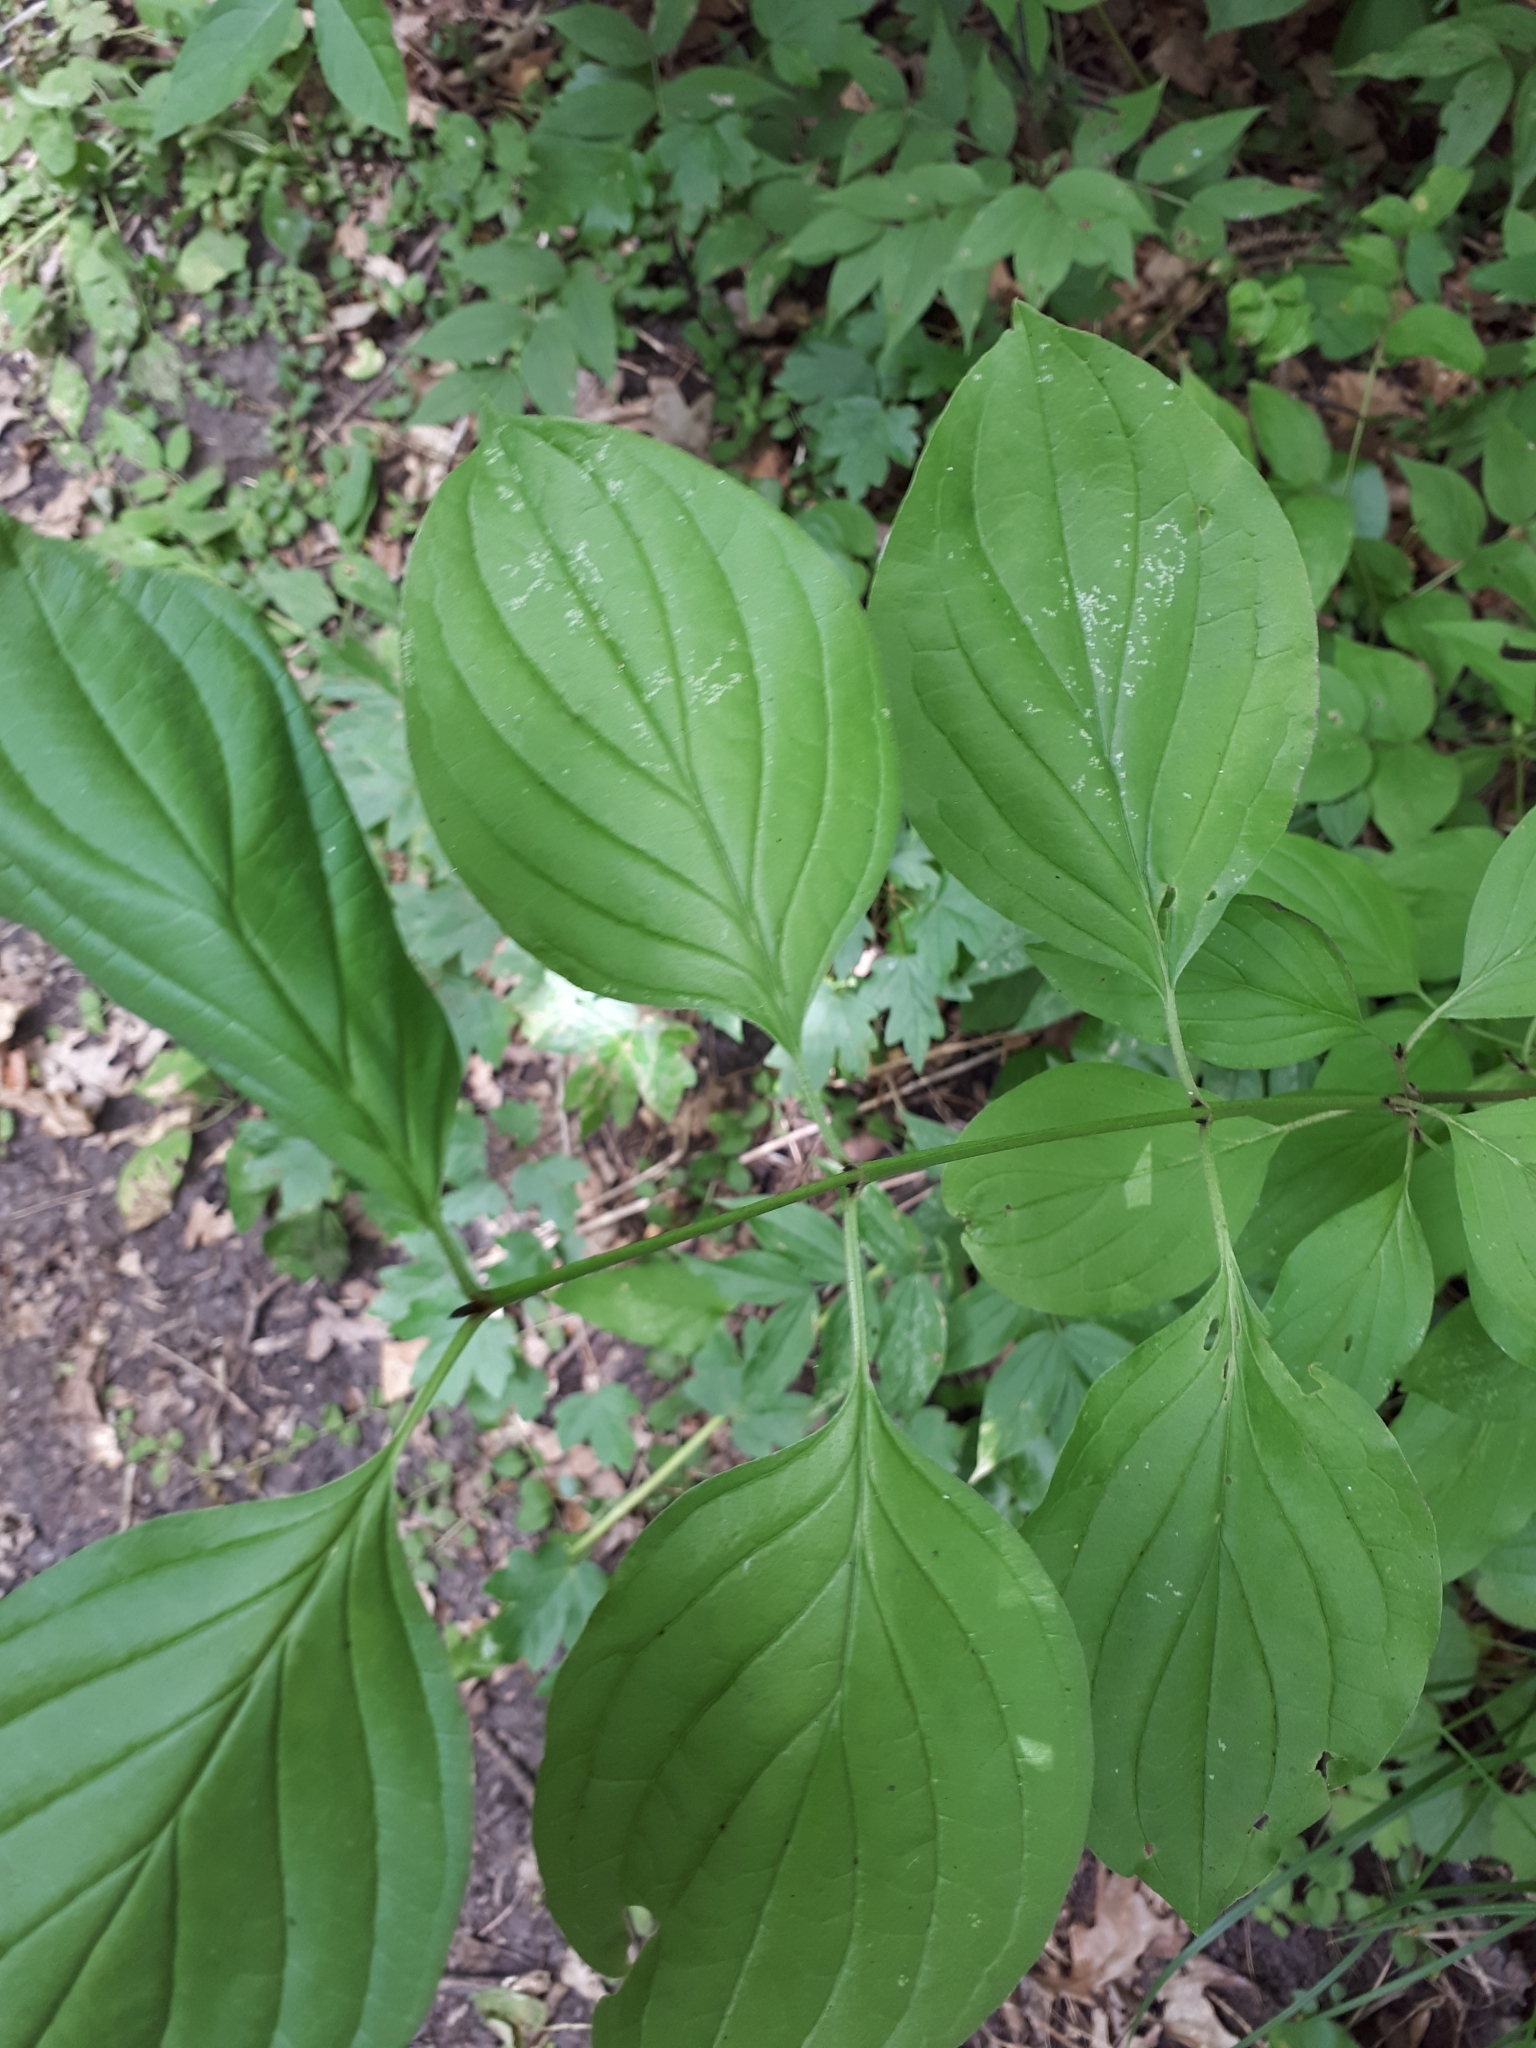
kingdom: Plantae
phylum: Tracheophyta
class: Magnoliopsida
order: Cornales
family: Cornaceae
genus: Cornus
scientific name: Cornus sanguinea
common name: Dogwood
